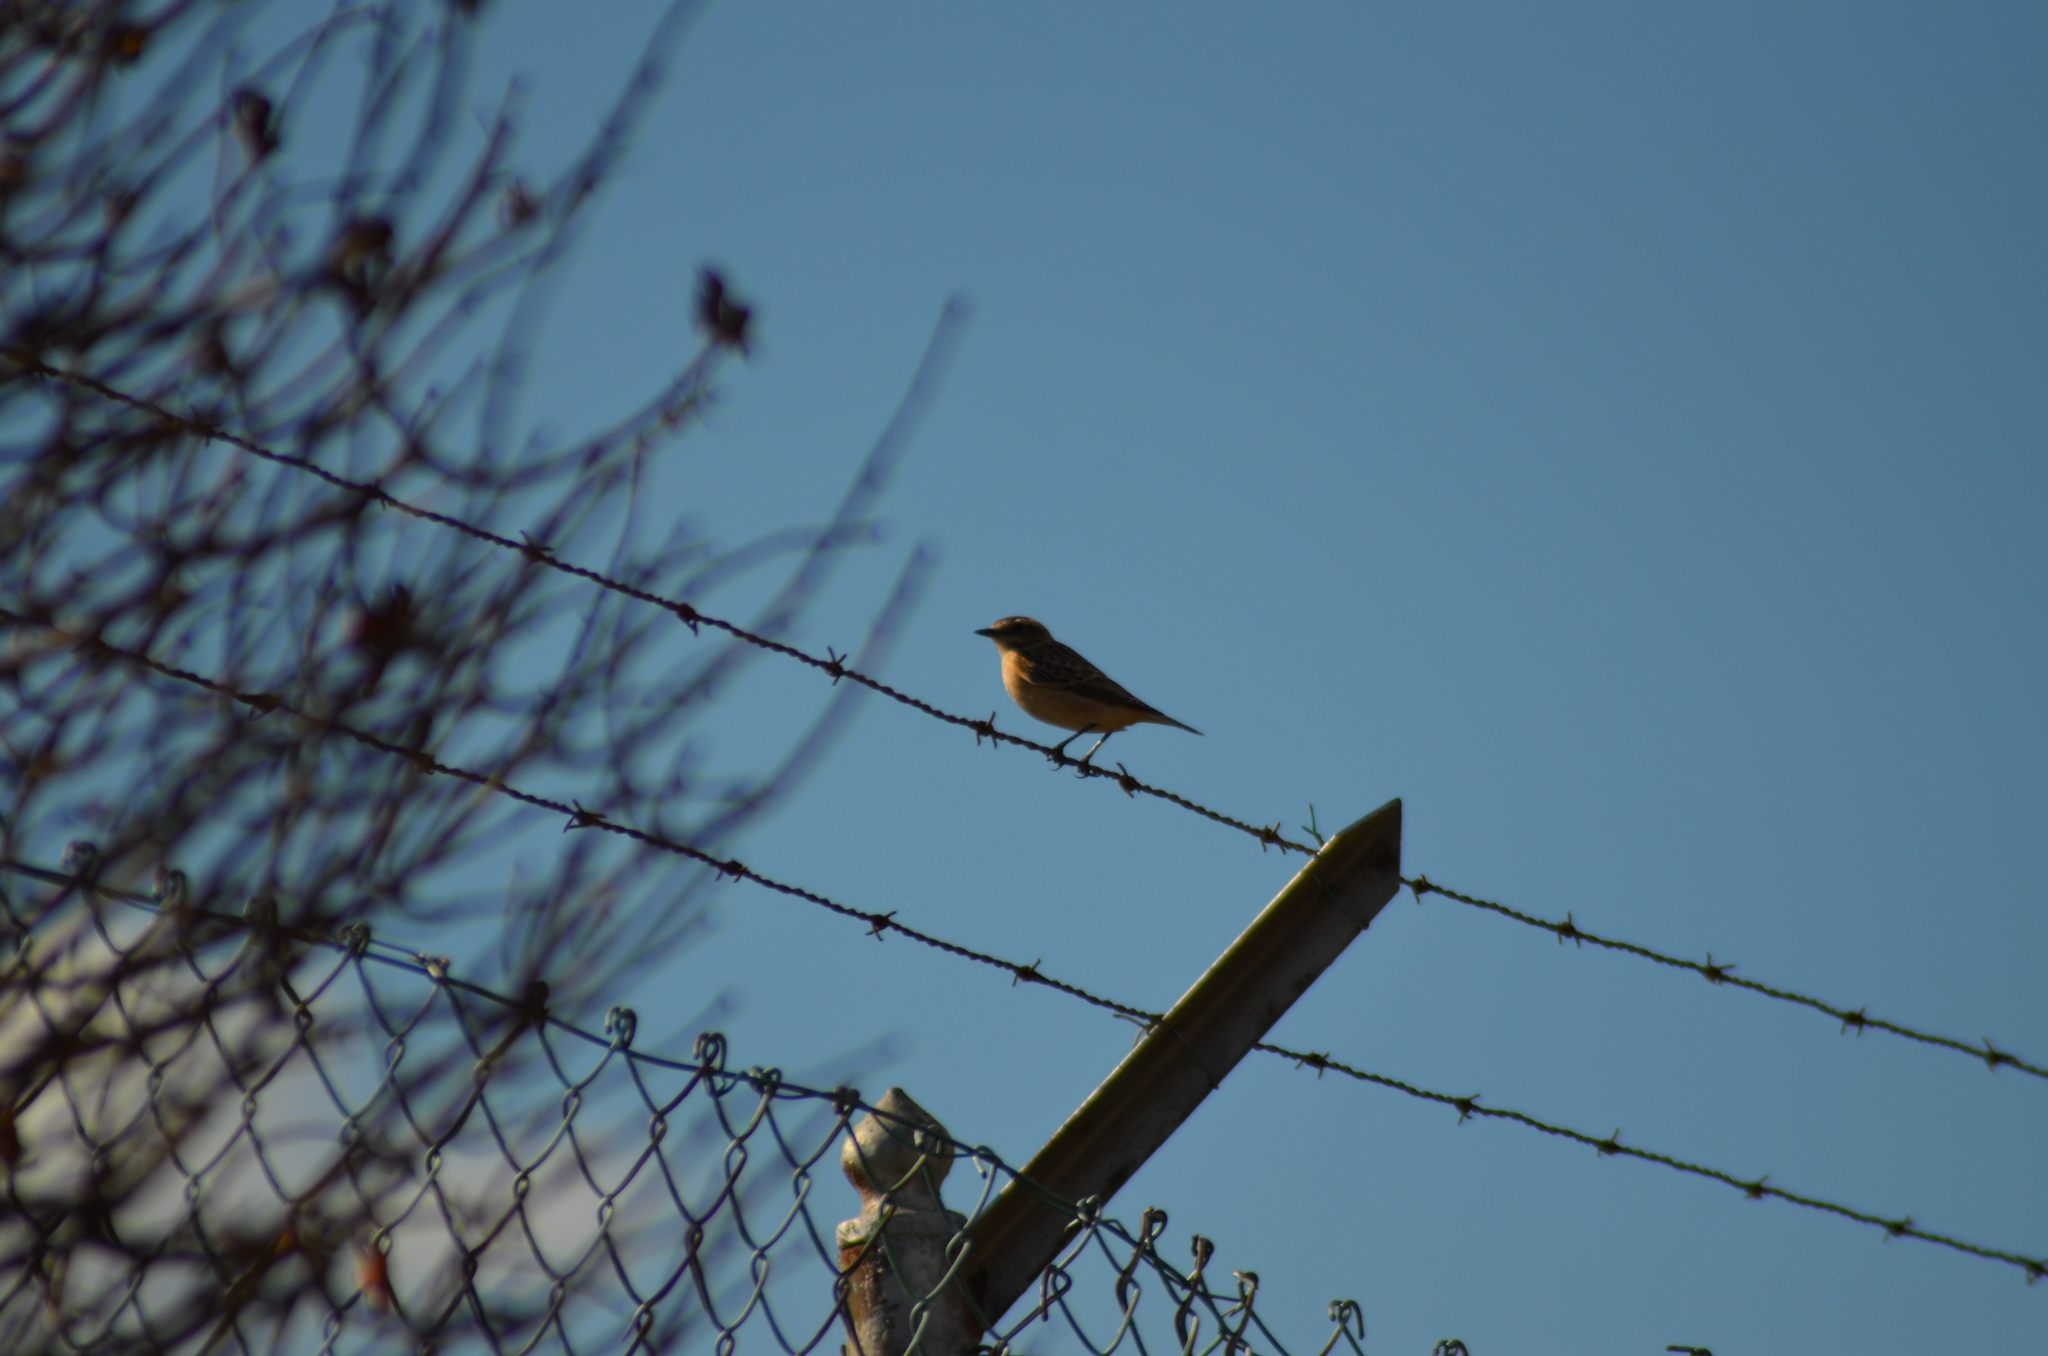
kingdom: Animalia
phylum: Chordata
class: Aves
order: Passeriformes
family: Muscicapidae
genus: Saxicola
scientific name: Saxicola rubetra
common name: Whinchat
